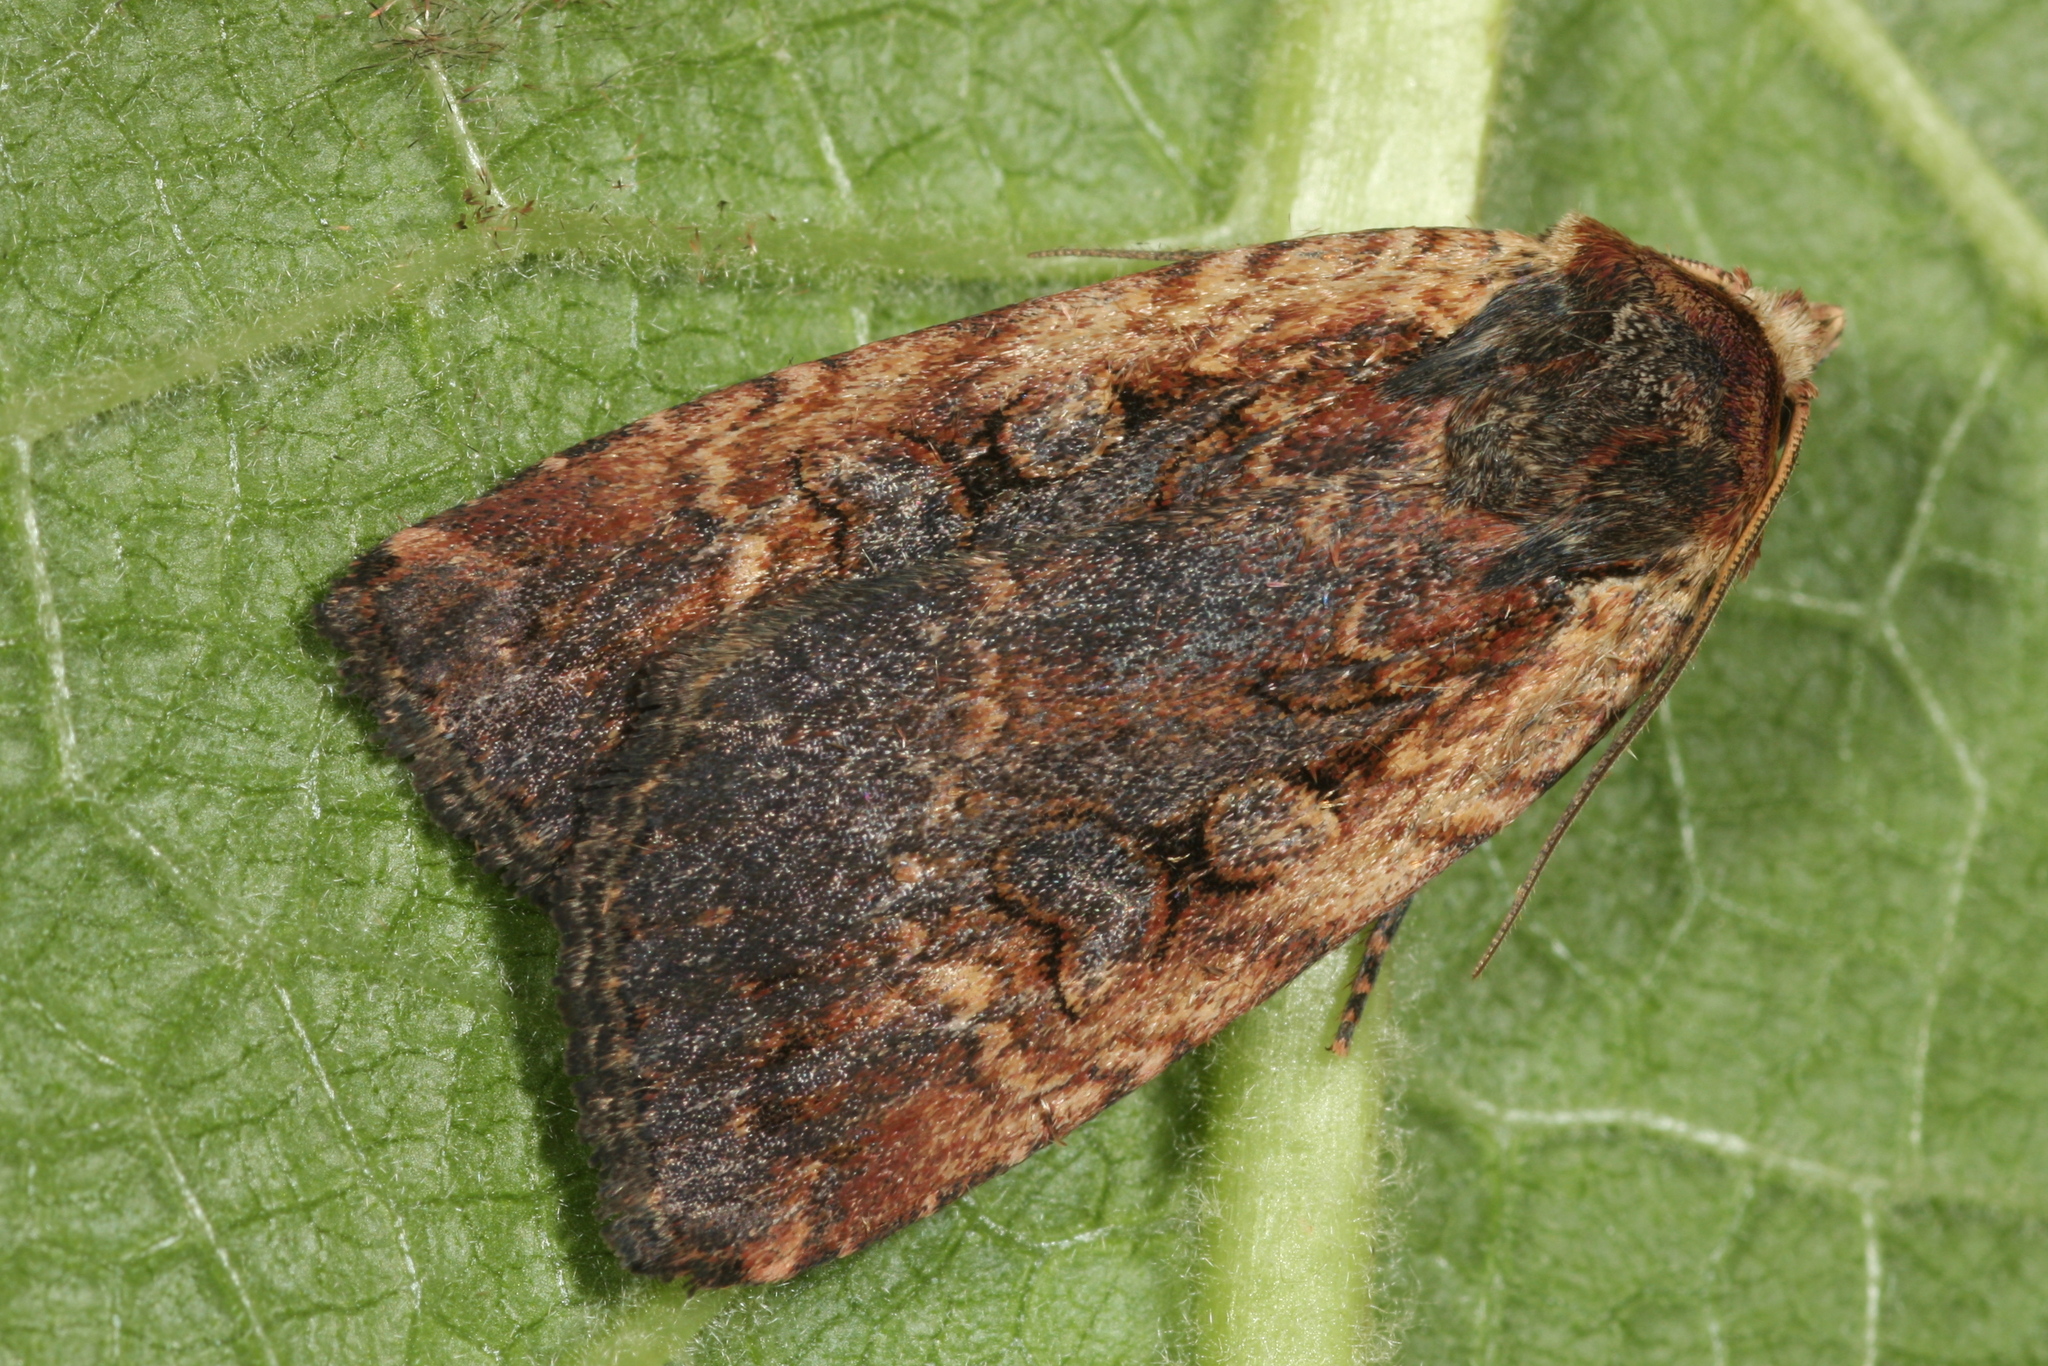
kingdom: Animalia
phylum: Arthropoda
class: Insecta
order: Lepidoptera
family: Noctuidae
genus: Eugraphe
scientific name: Eugraphe sigma
